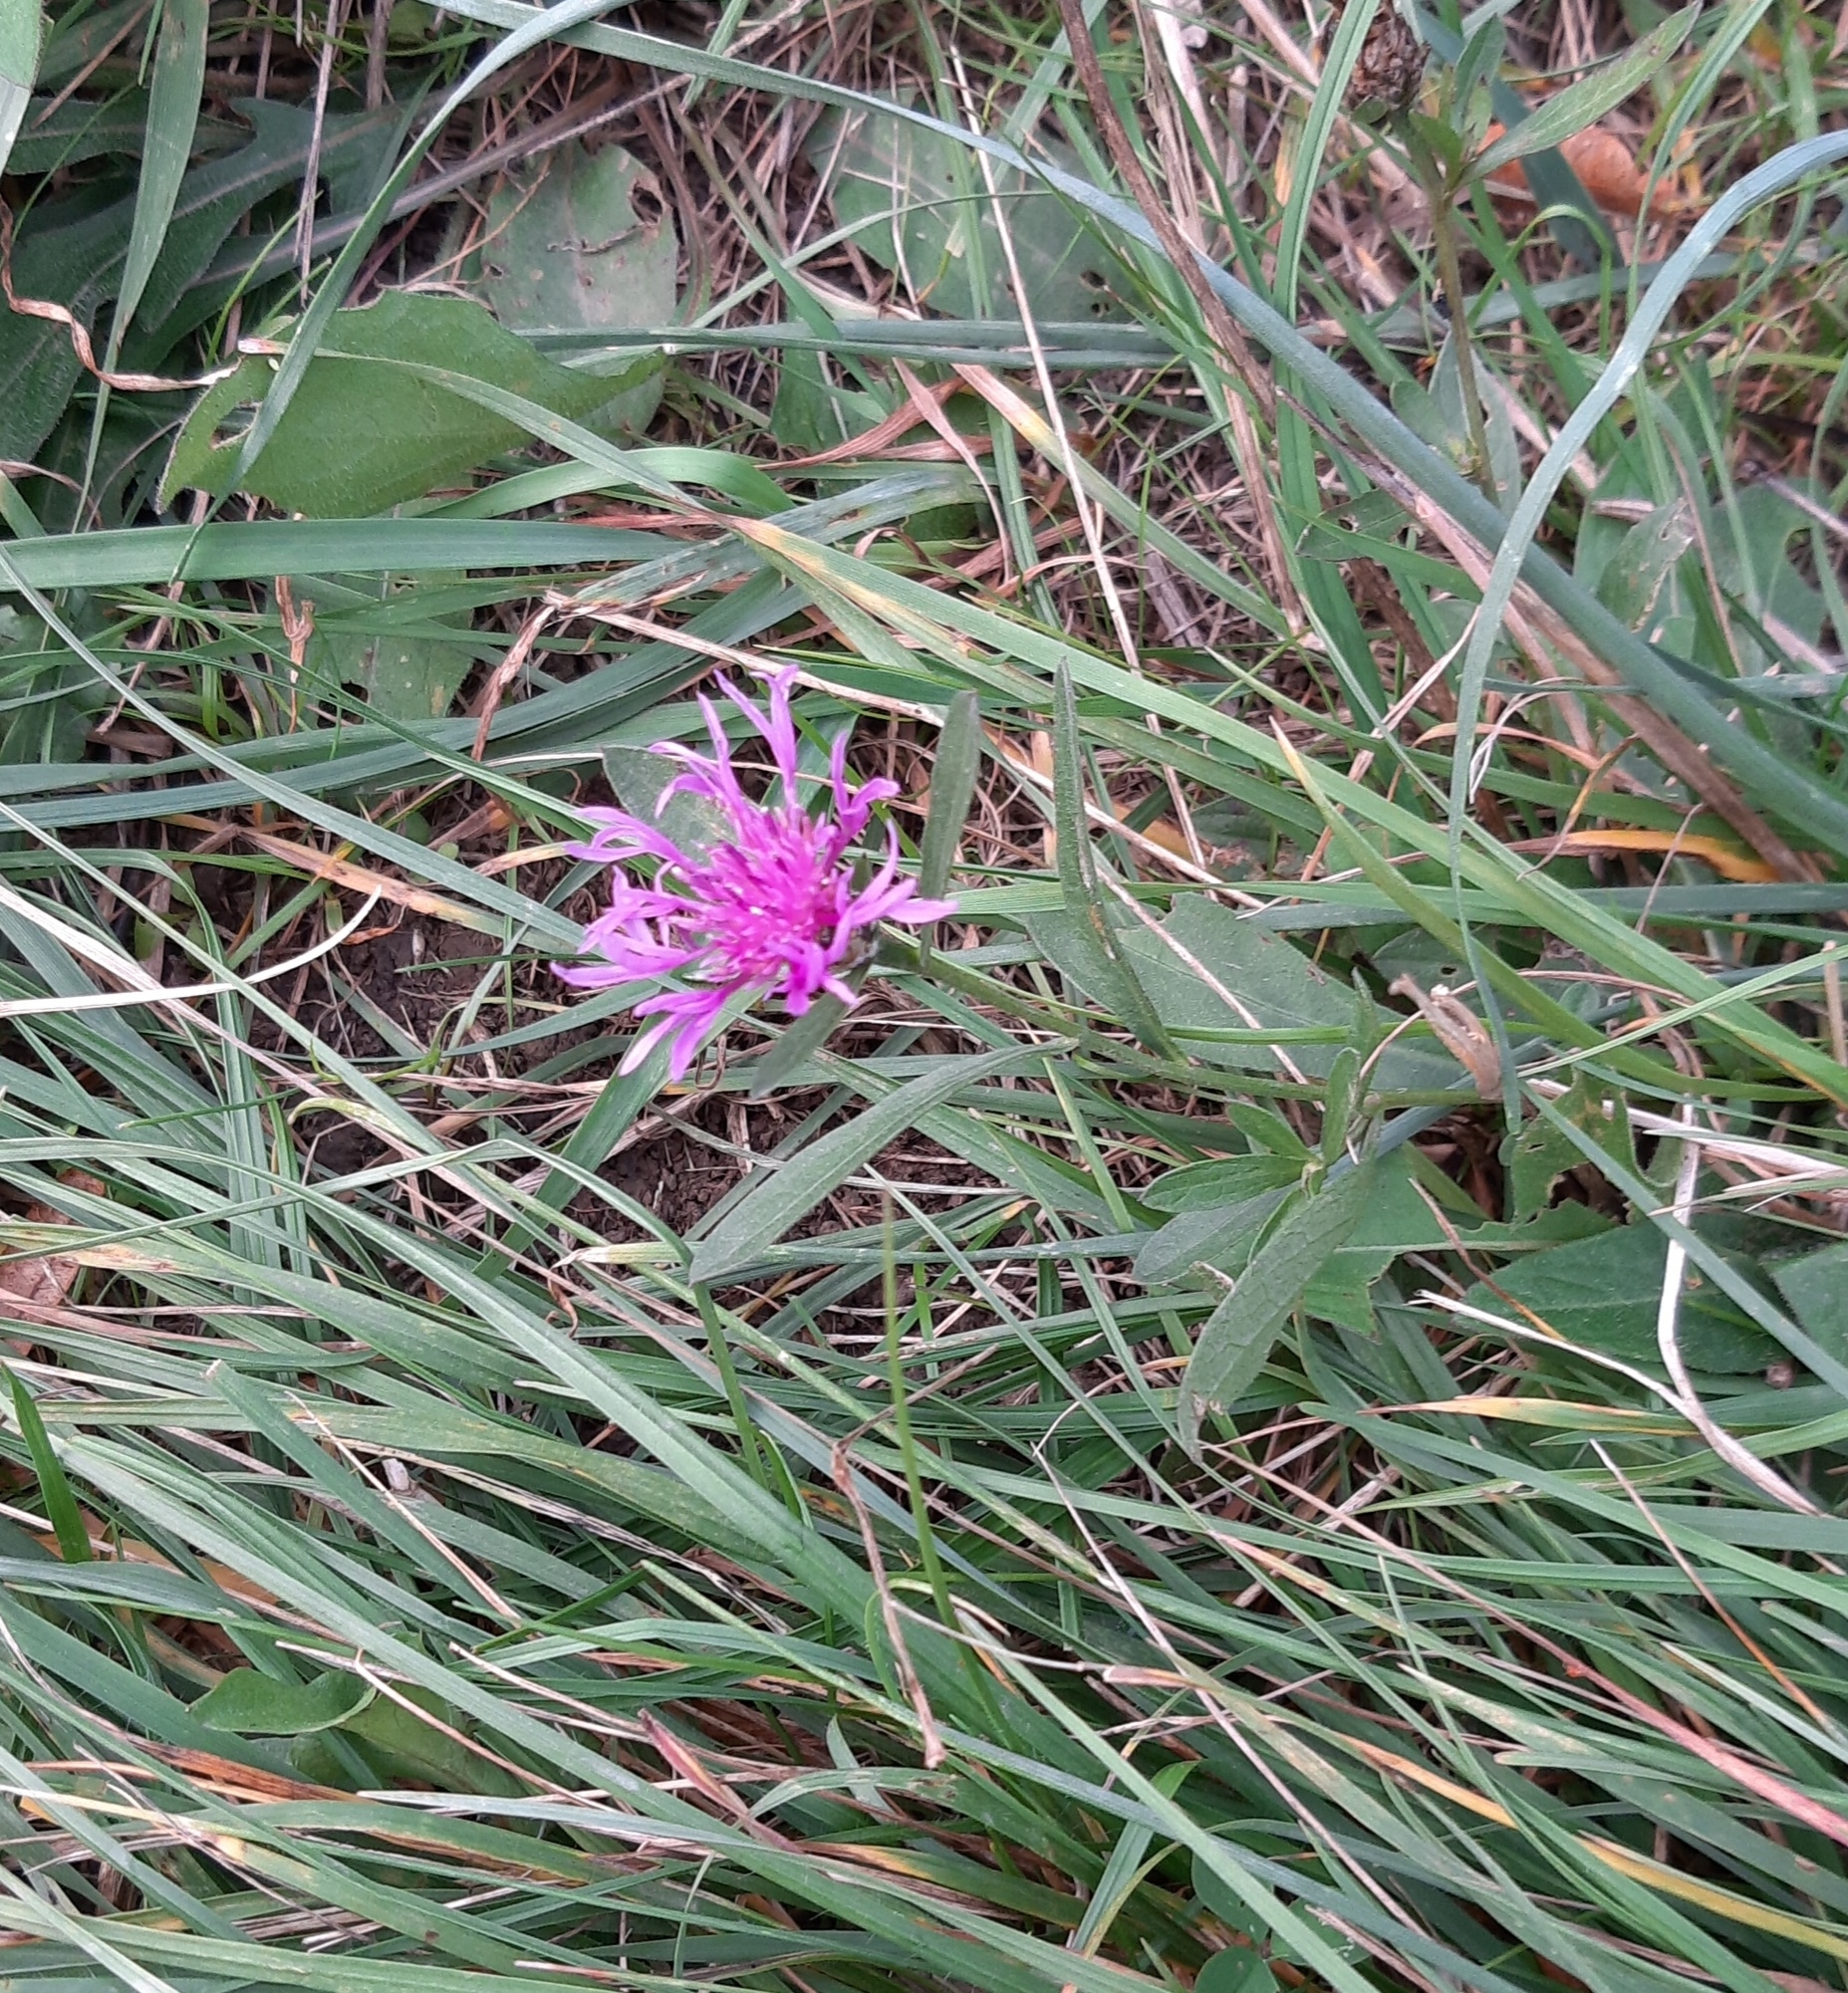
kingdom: Plantae
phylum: Tracheophyta
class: Magnoliopsida
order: Asterales
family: Asteraceae
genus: Centaurea
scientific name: Centaurea jacea
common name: Brown knapweed
